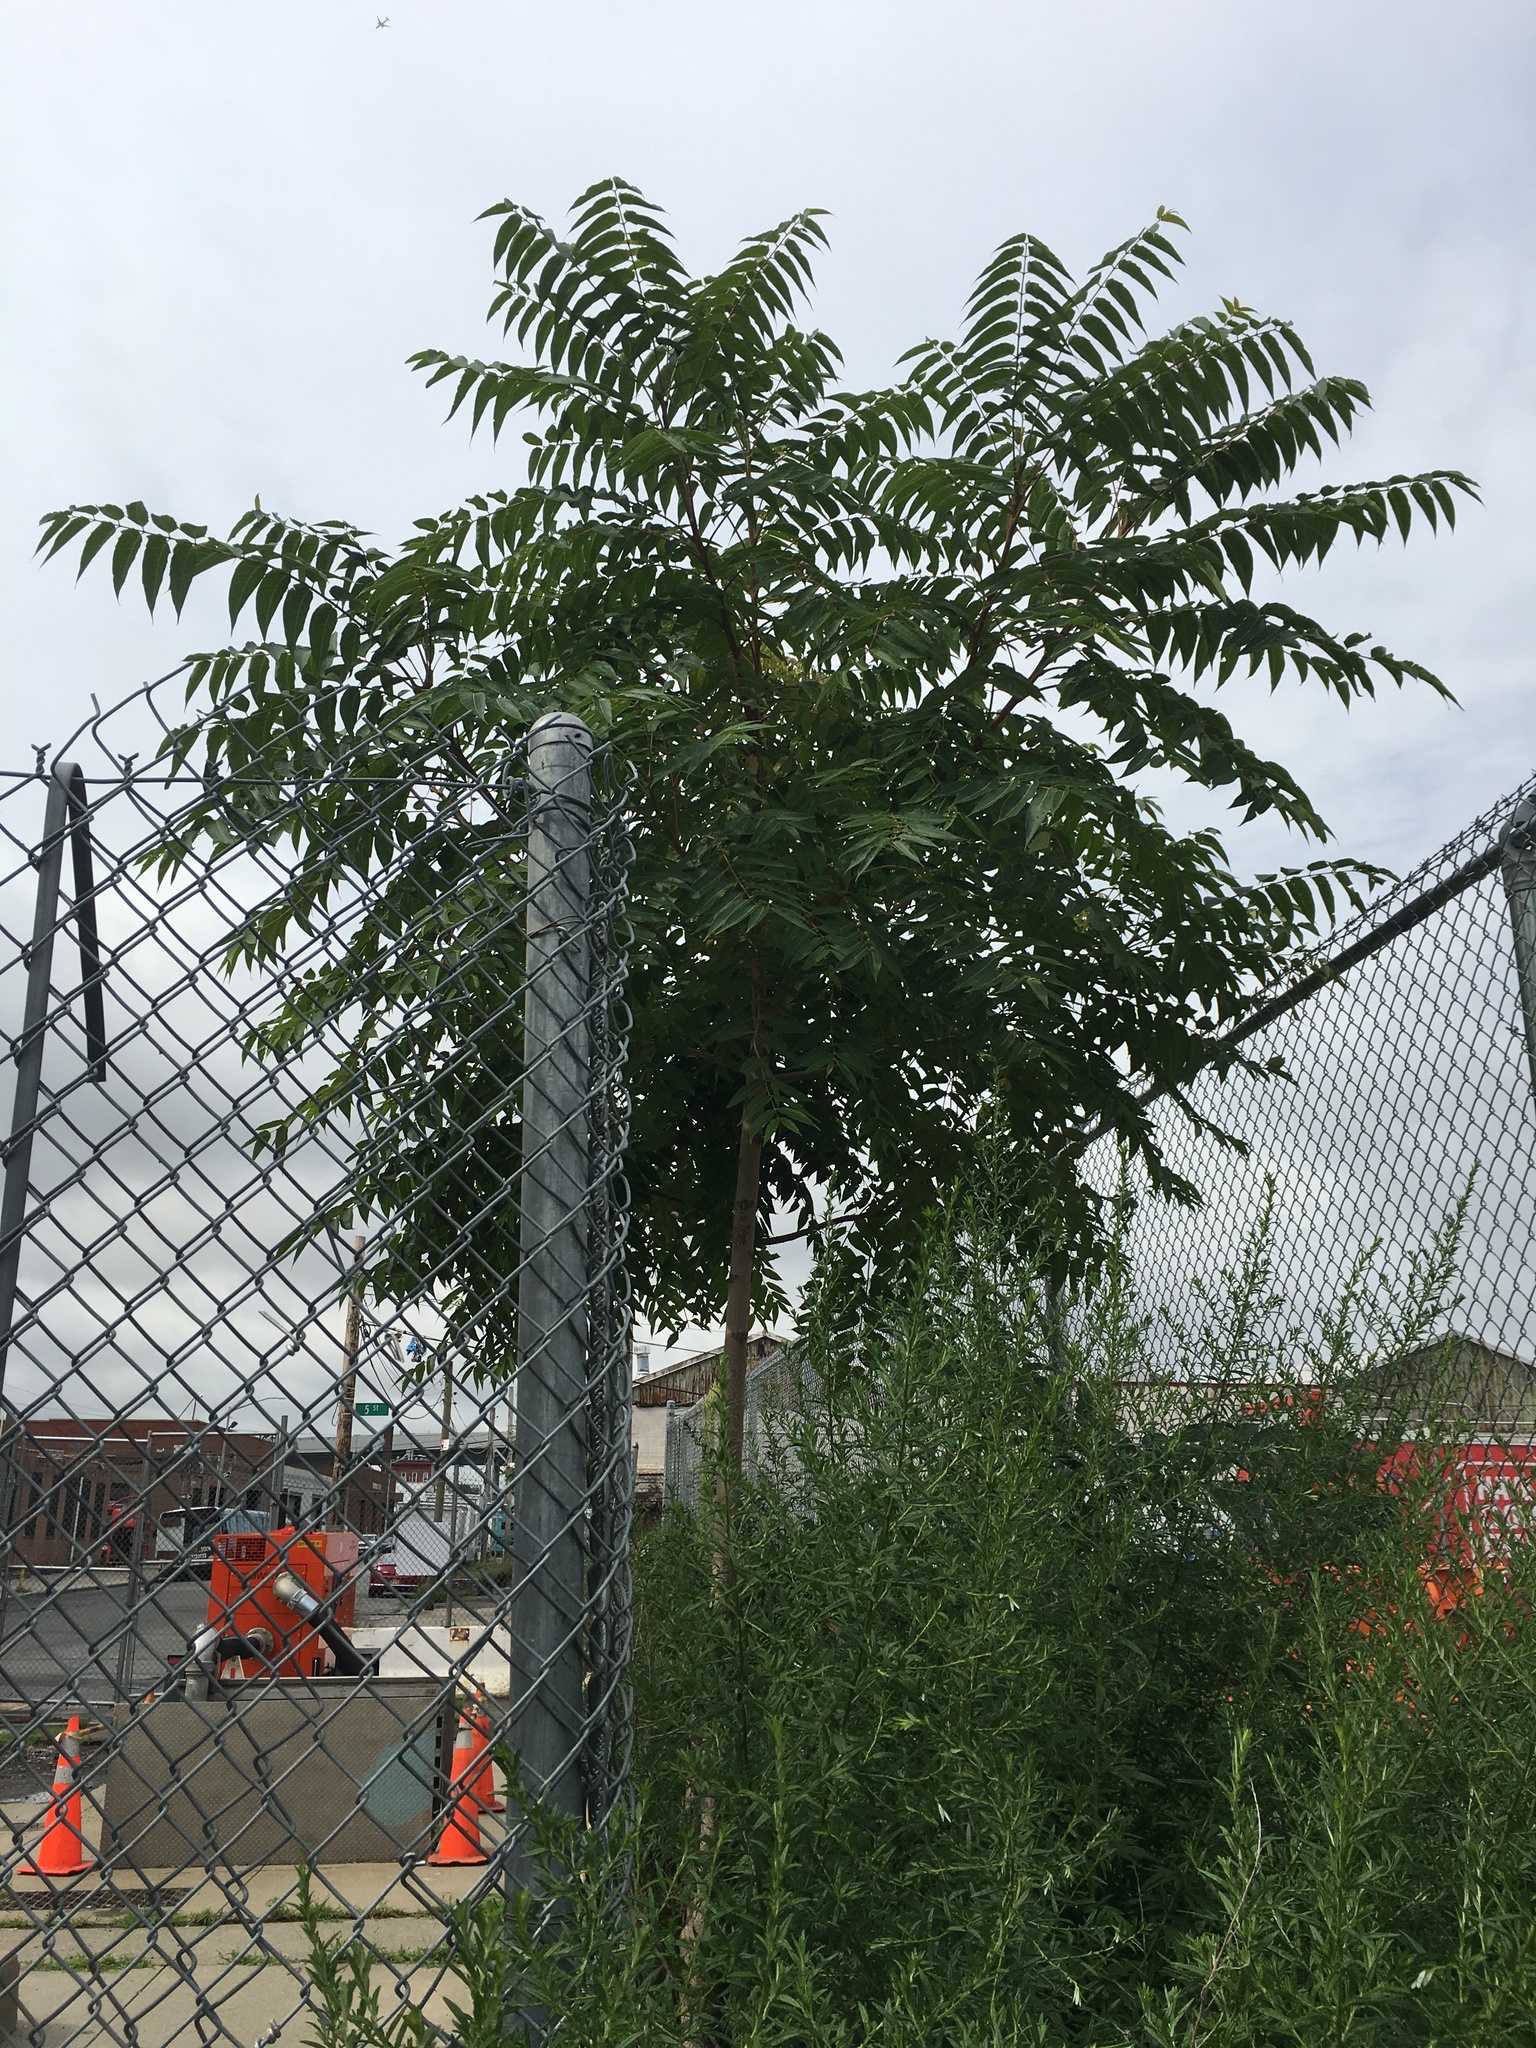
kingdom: Plantae
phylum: Tracheophyta
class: Magnoliopsida
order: Sapindales
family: Simaroubaceae
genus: Ailanthus
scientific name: Ailanthus altissima
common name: Tree-of-heaven
